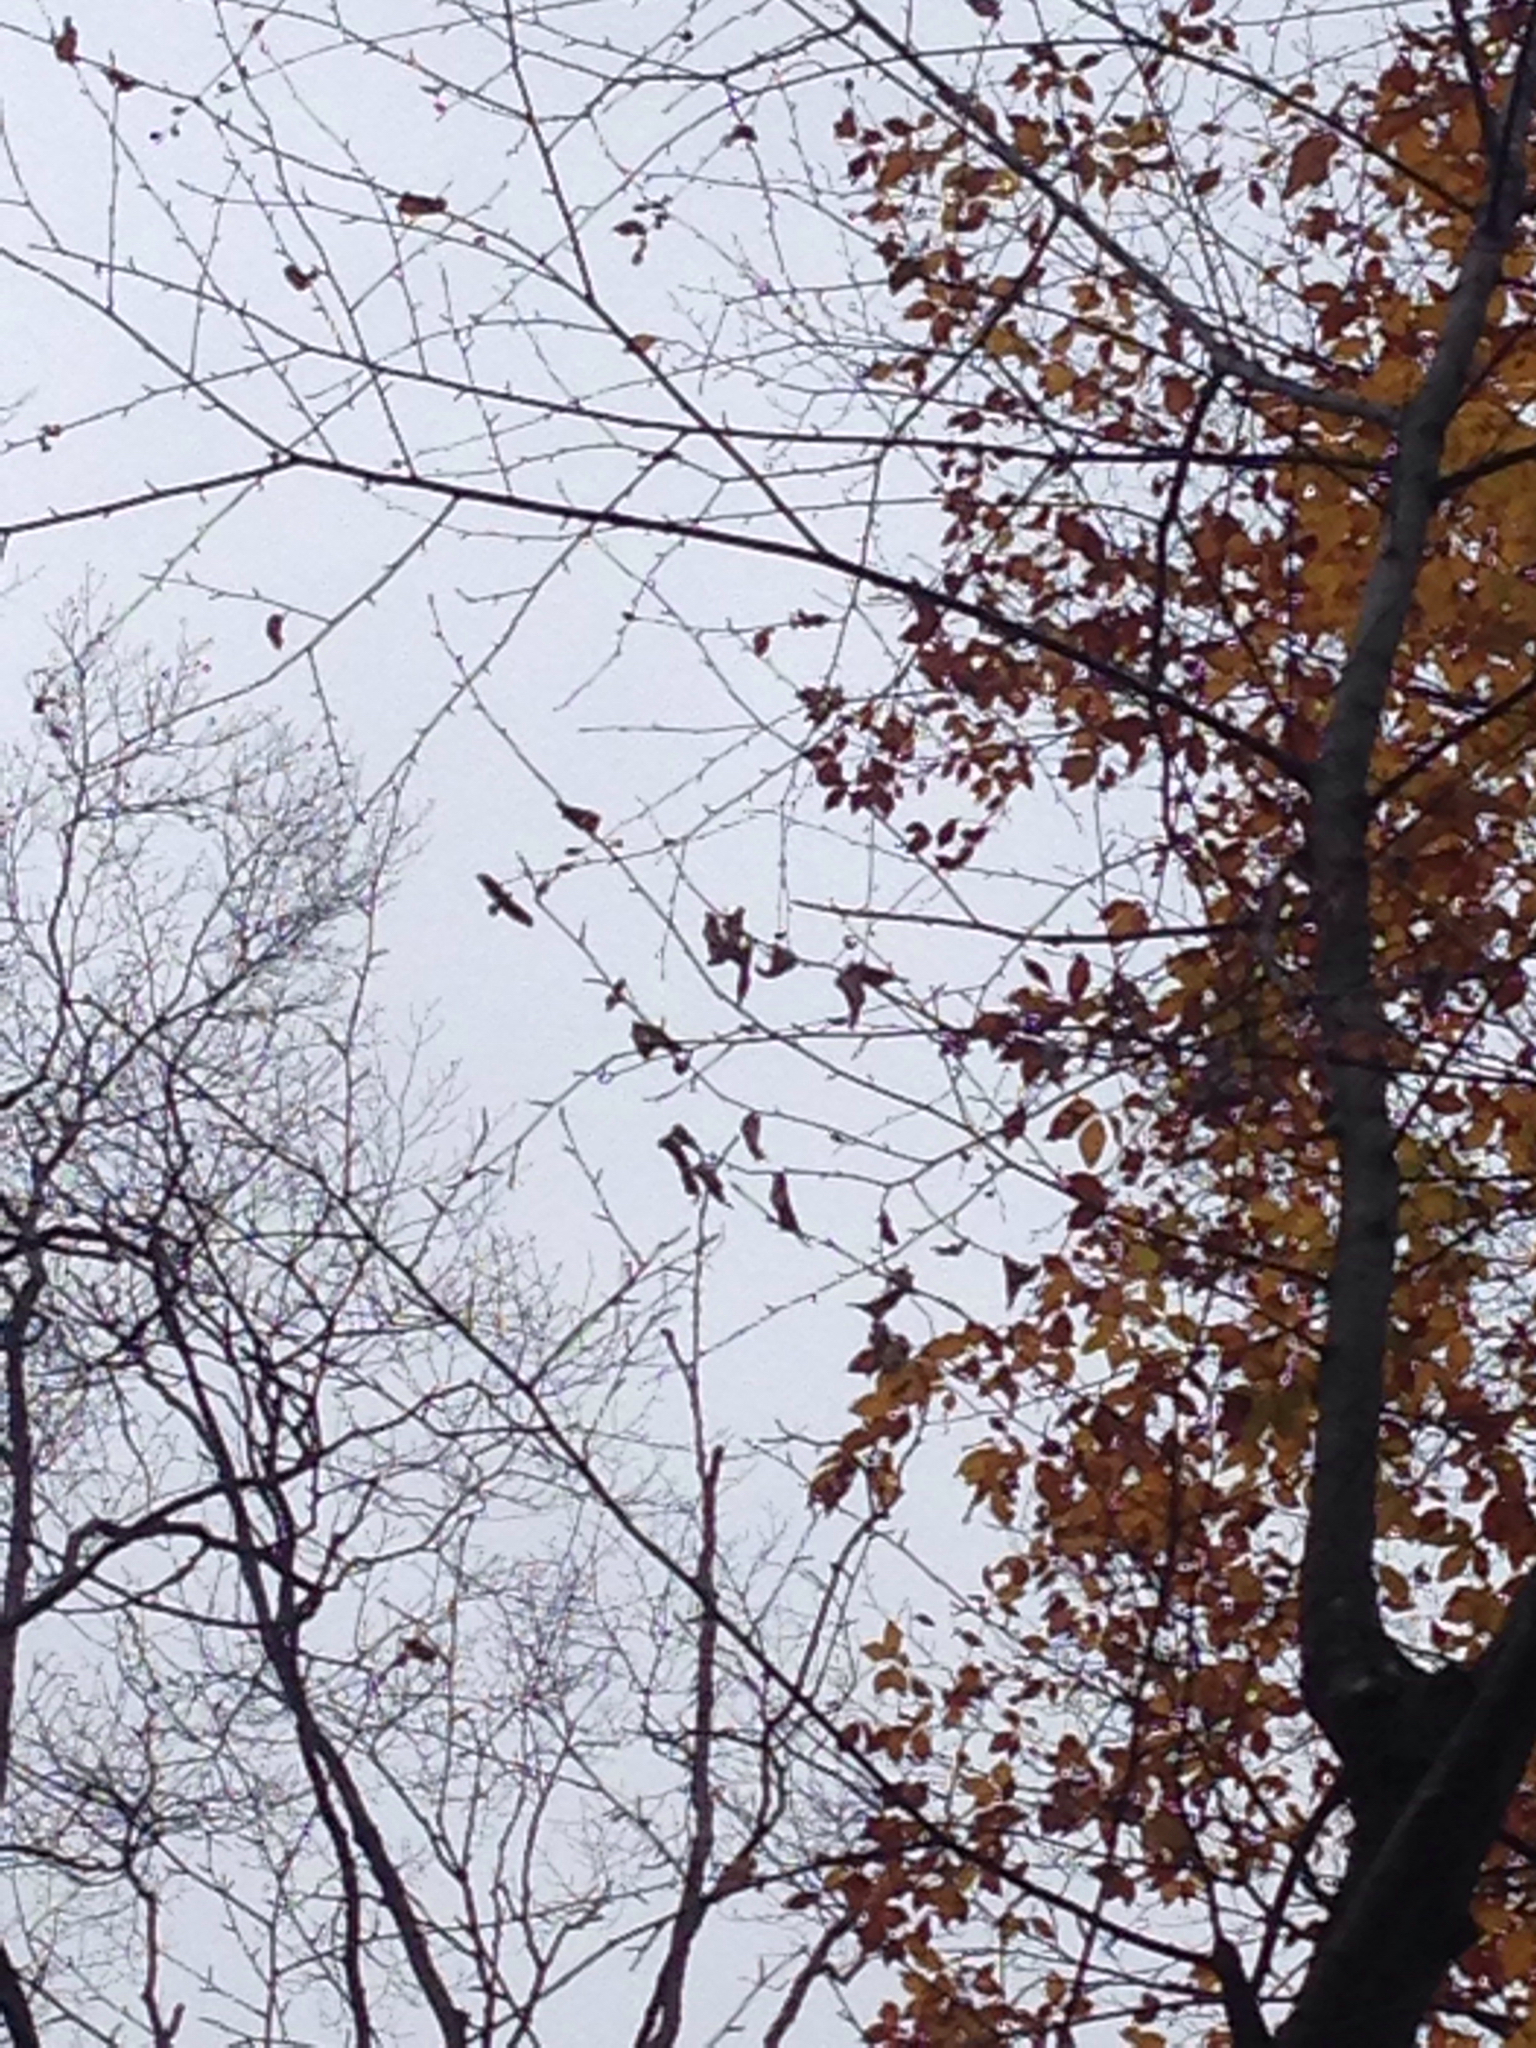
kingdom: Animalia
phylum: Chordata
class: Aves
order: Accipitriformes
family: Accipitridae
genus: Buteo
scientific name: Buteo jamaicensis
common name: Red-tailed hawk
